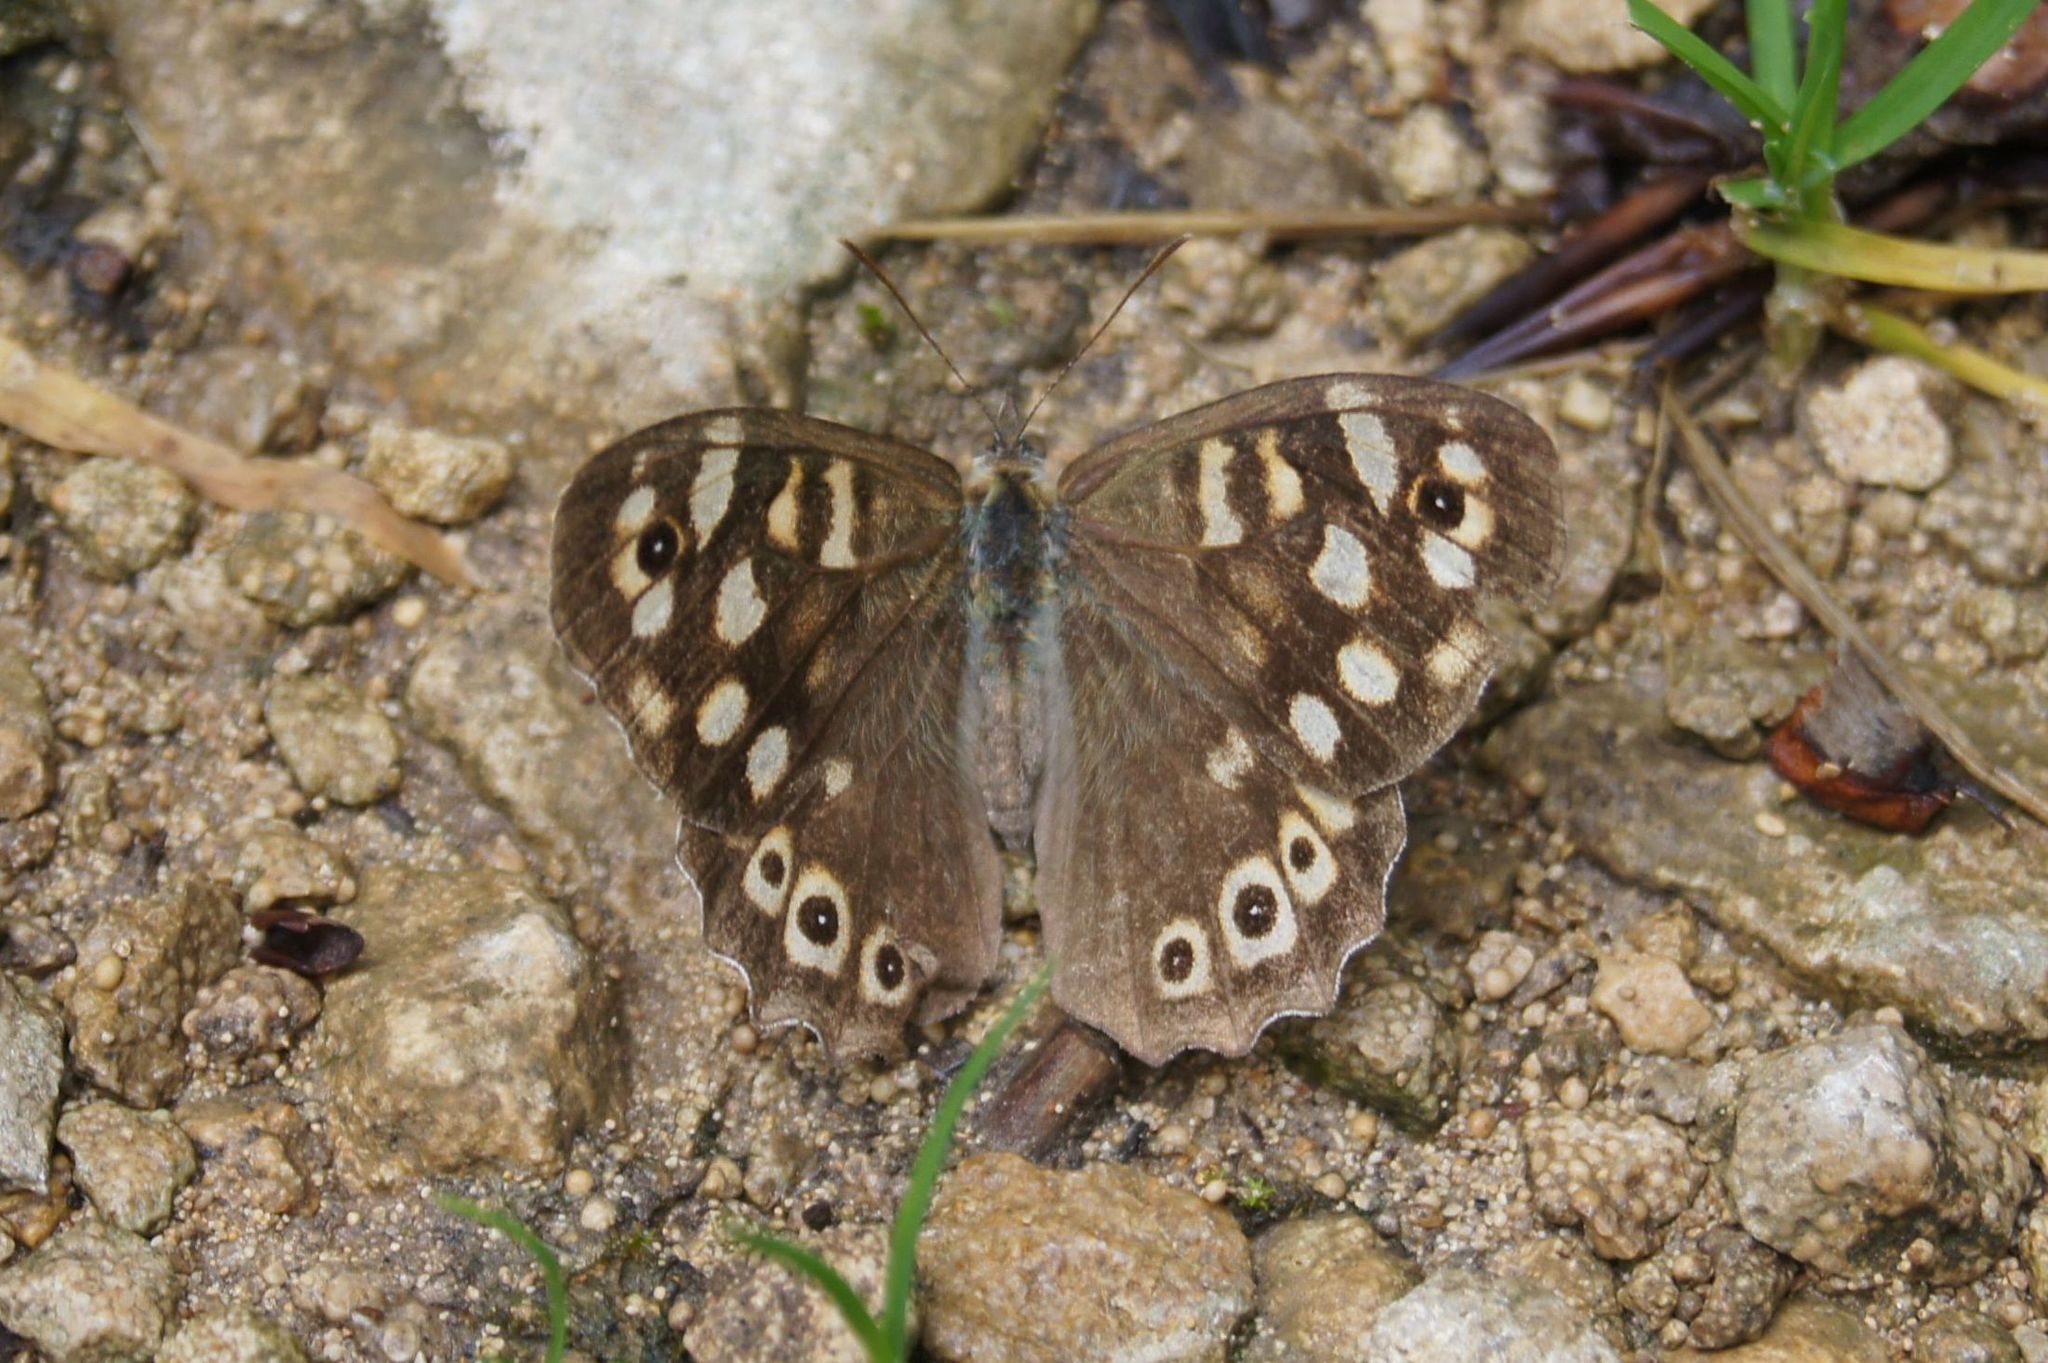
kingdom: Animalia
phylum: Arthropoda
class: Insecta
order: Lepidoptera
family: Nymphalidae
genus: Pararge
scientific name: Pararge aegeria
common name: Speckled wood
